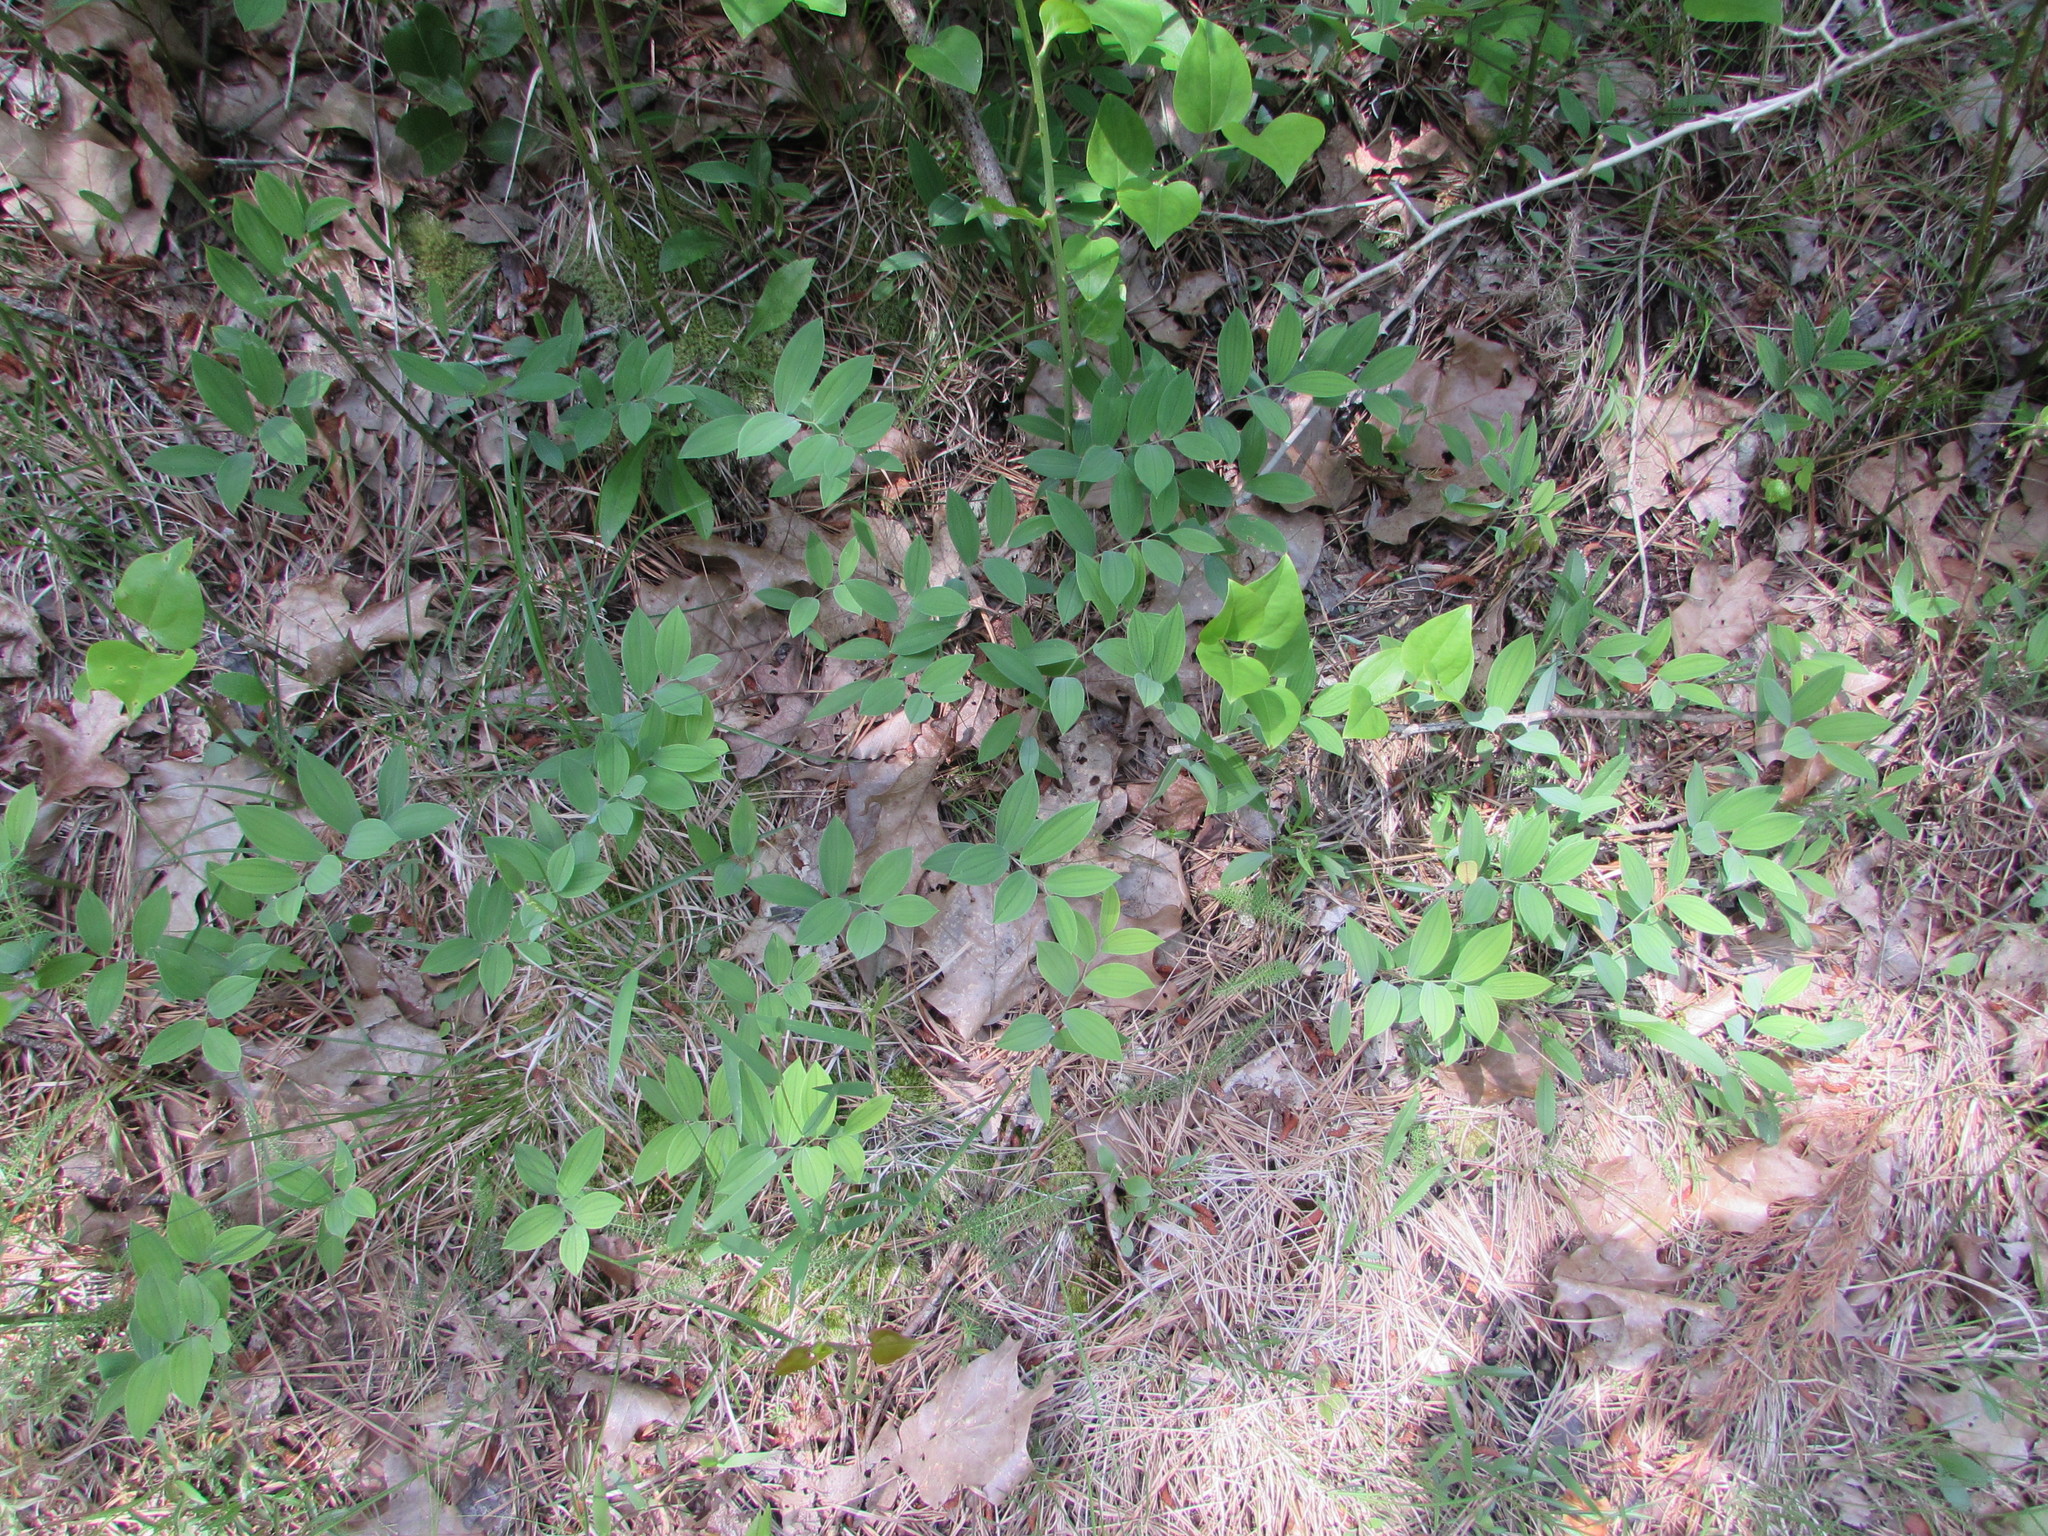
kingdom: Plantae
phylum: Tracheophyta
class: Liliopsida
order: Liliales
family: Colchicaceae
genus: Uvularia
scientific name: Uvularia sessilifolia
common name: Straw-lily
